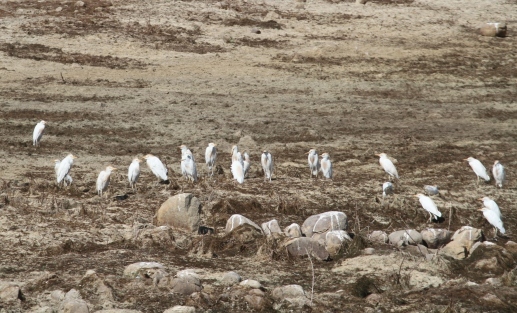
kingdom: Animalia
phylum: Chordata
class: Aves
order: Pelecaniformes
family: Ardeidae
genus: Bubulcus
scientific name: Bubulcus ibis
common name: Cattle egret
